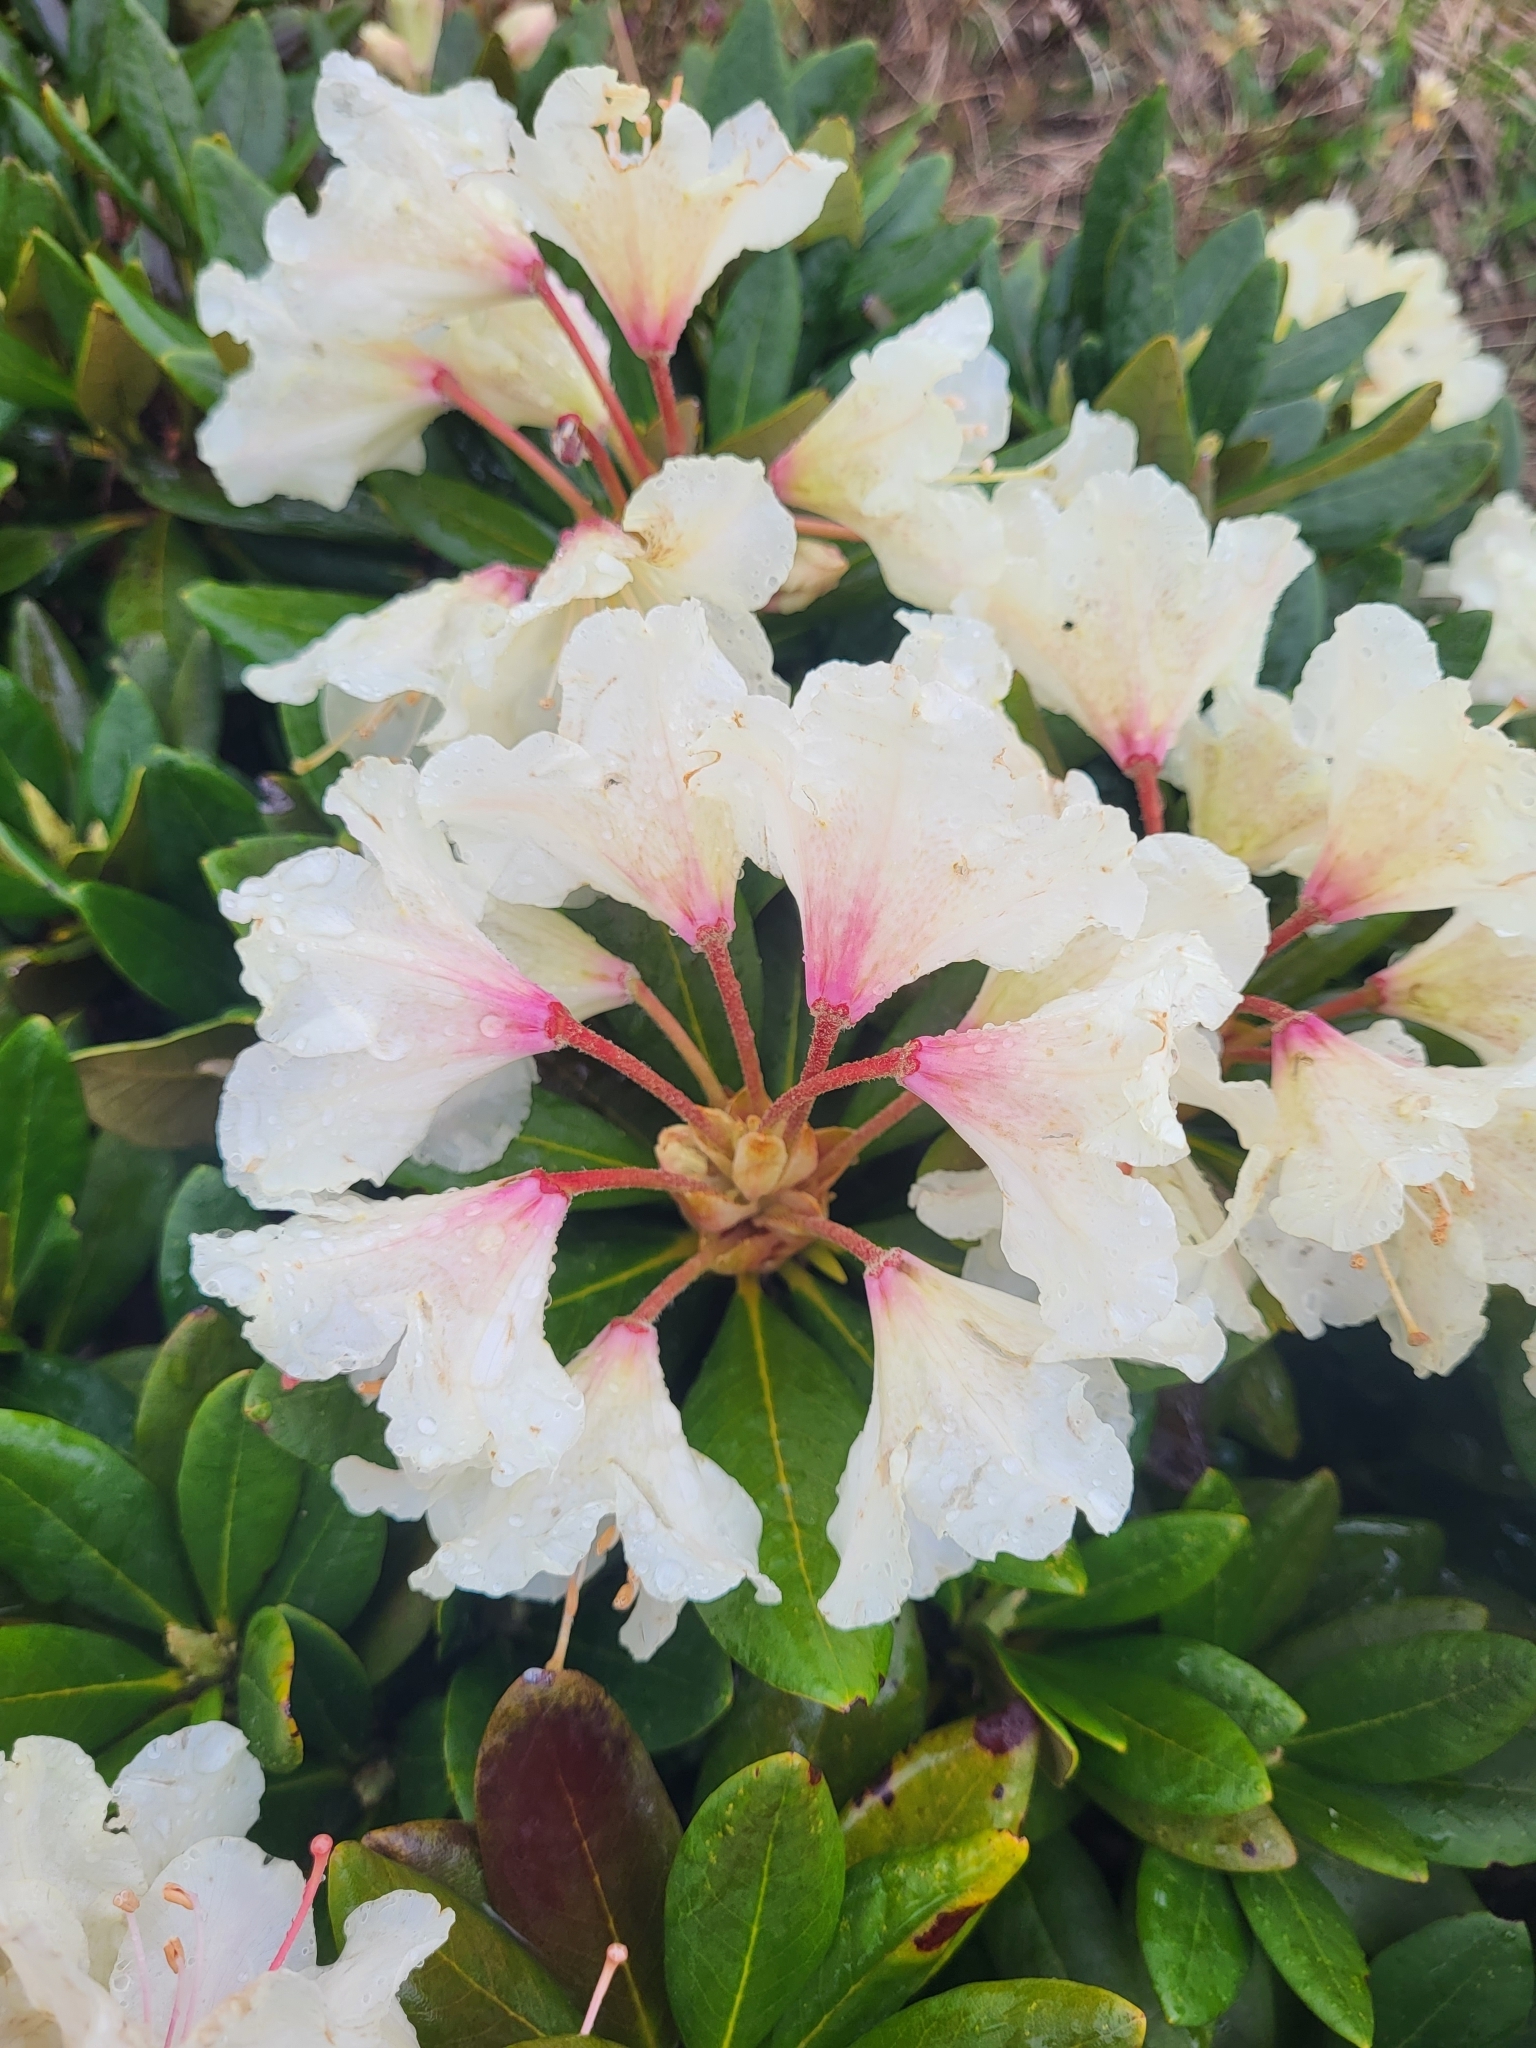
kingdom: Plantae
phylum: Tracheophyta
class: Magnoliopsida
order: Ericales
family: Ericaceae
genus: Rhododendron
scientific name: Rhododendron caucasicum
